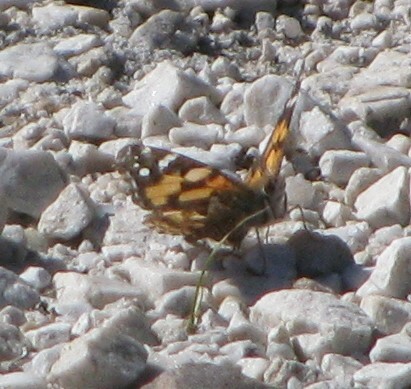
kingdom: Animalia
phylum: Arthropoda
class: Insecta
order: Lepidoptera
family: Nymphalidae
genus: Vanessa
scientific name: Vanessa kershawi
